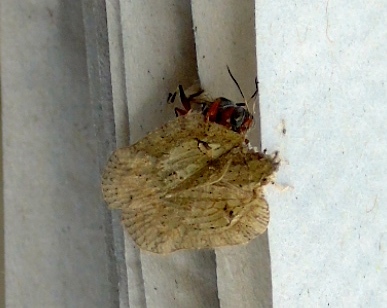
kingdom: Animalia
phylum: Arthropoda
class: Insecta
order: Hemiptera
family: Flatidae
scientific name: Flatidae
